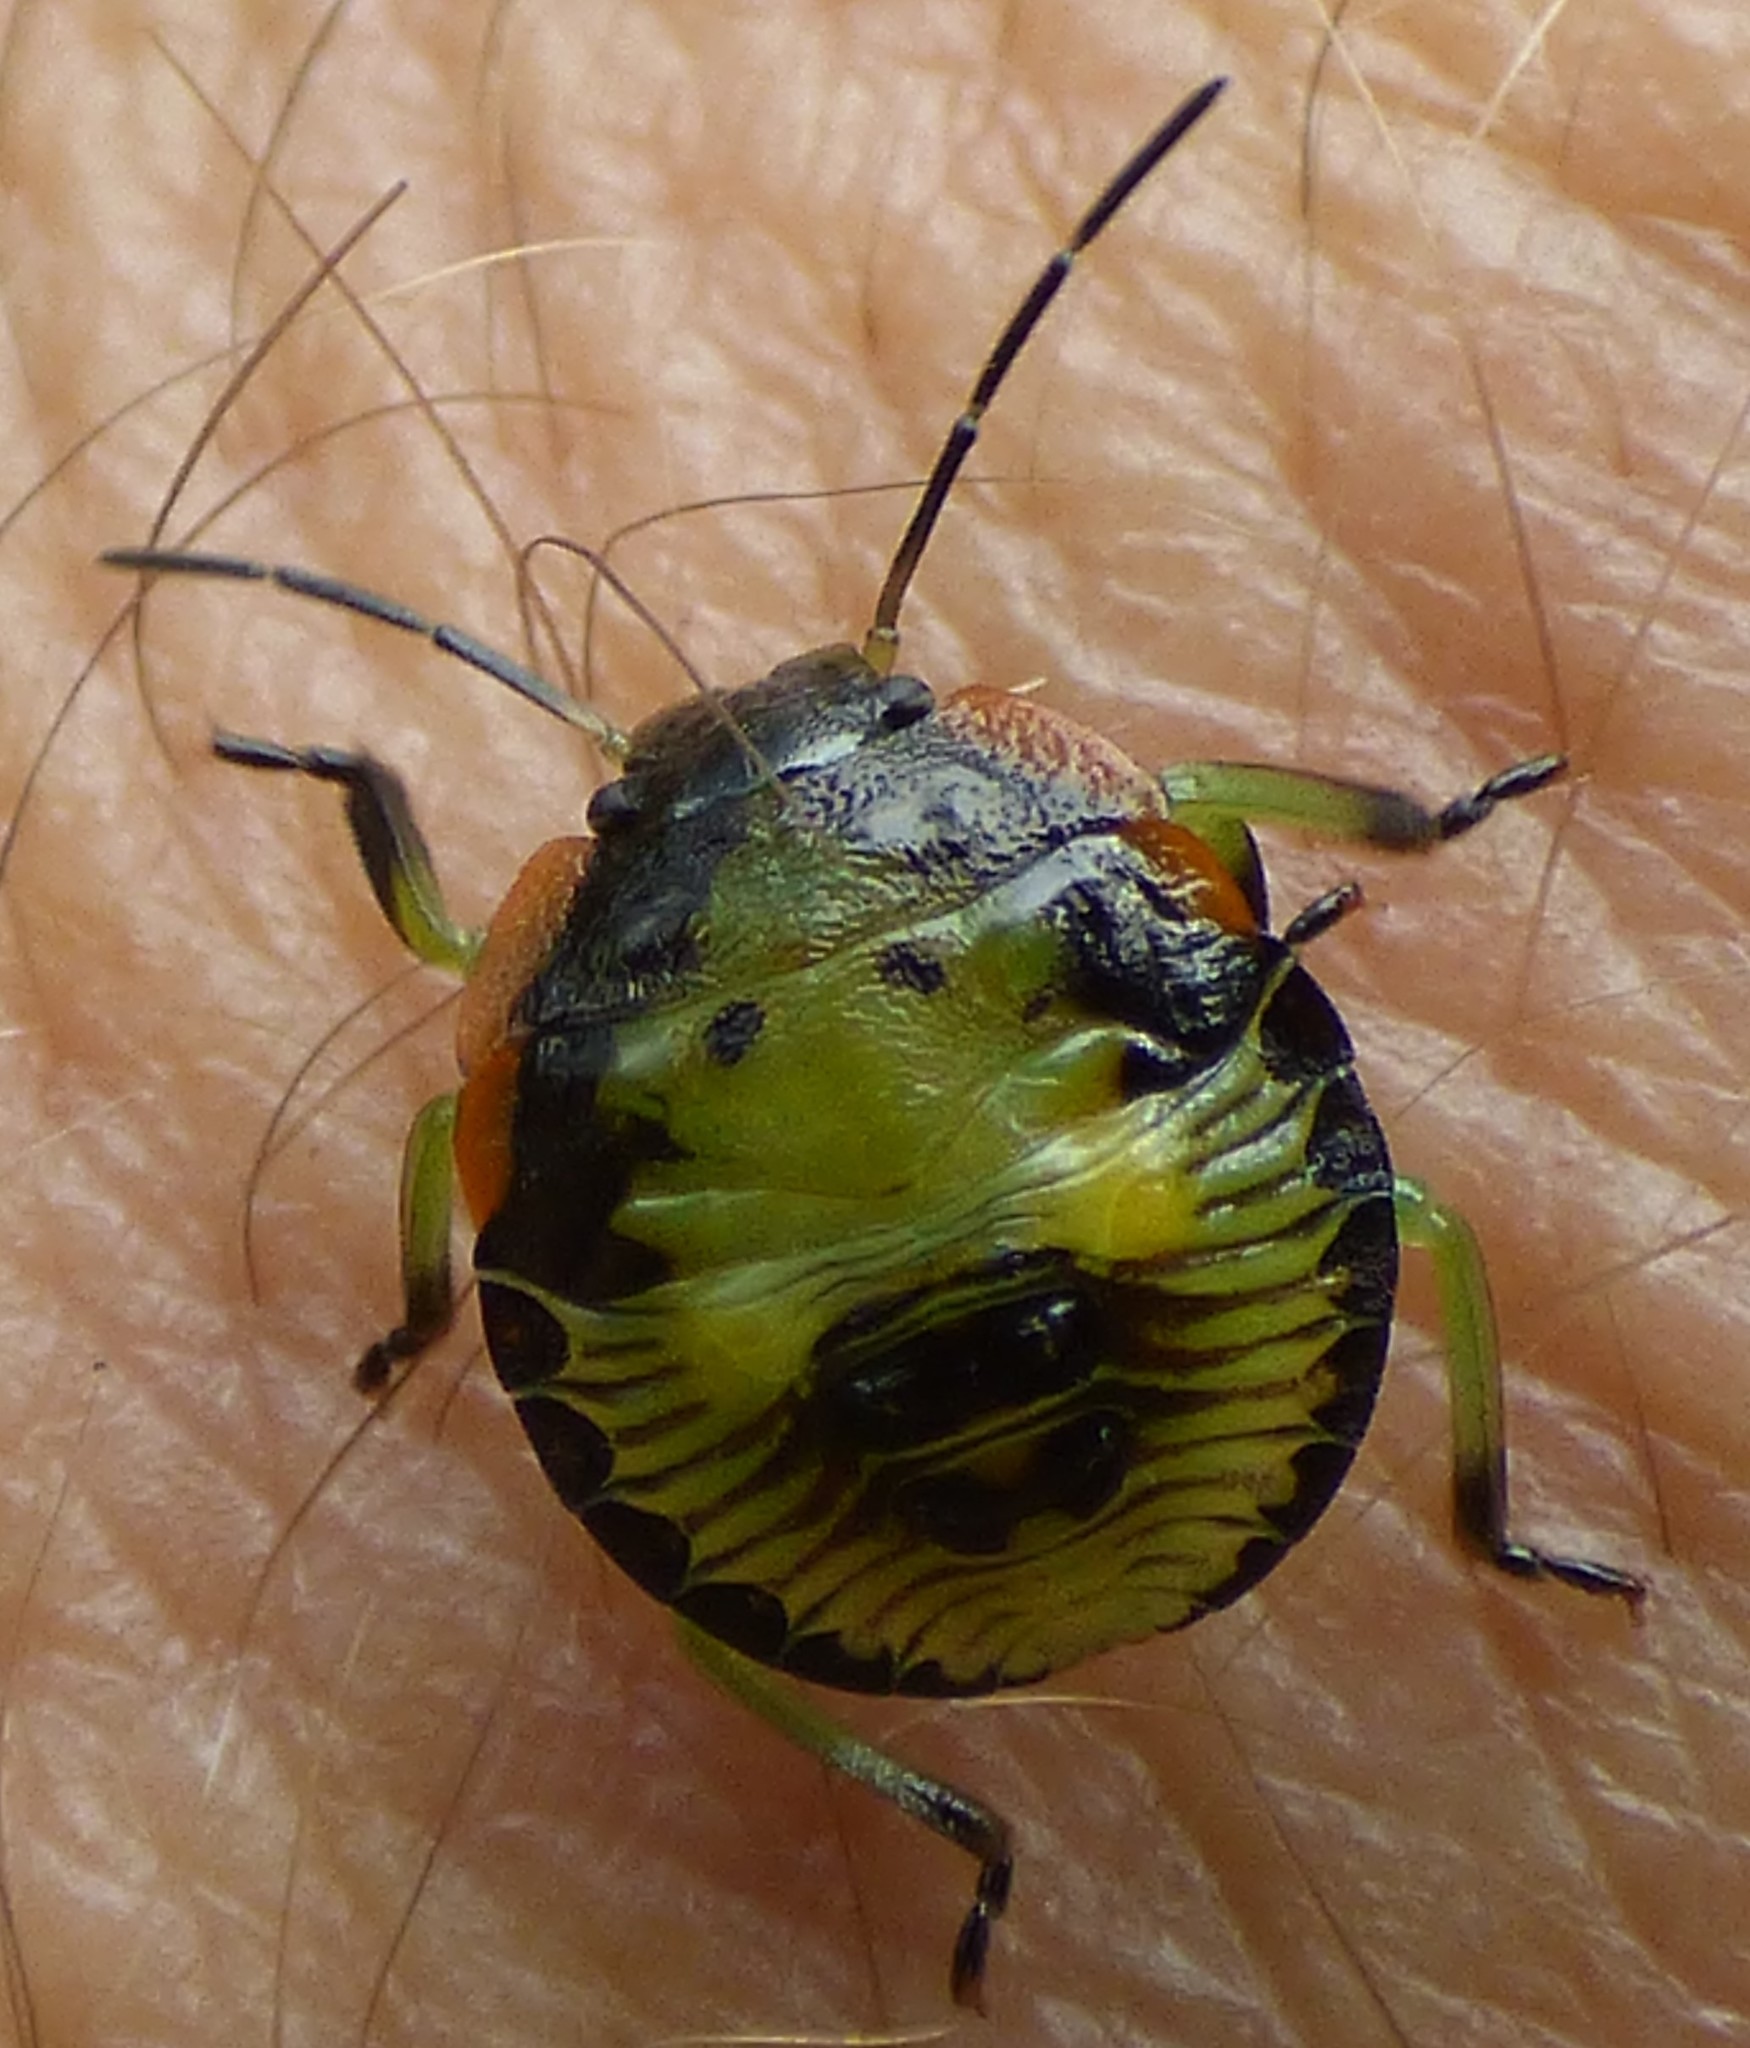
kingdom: Animalia
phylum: Arthropoda
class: Insecta
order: Hemiptera
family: Pentatomidae
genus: Chinavia
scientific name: Chinavia hilaris
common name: Green stink bug
